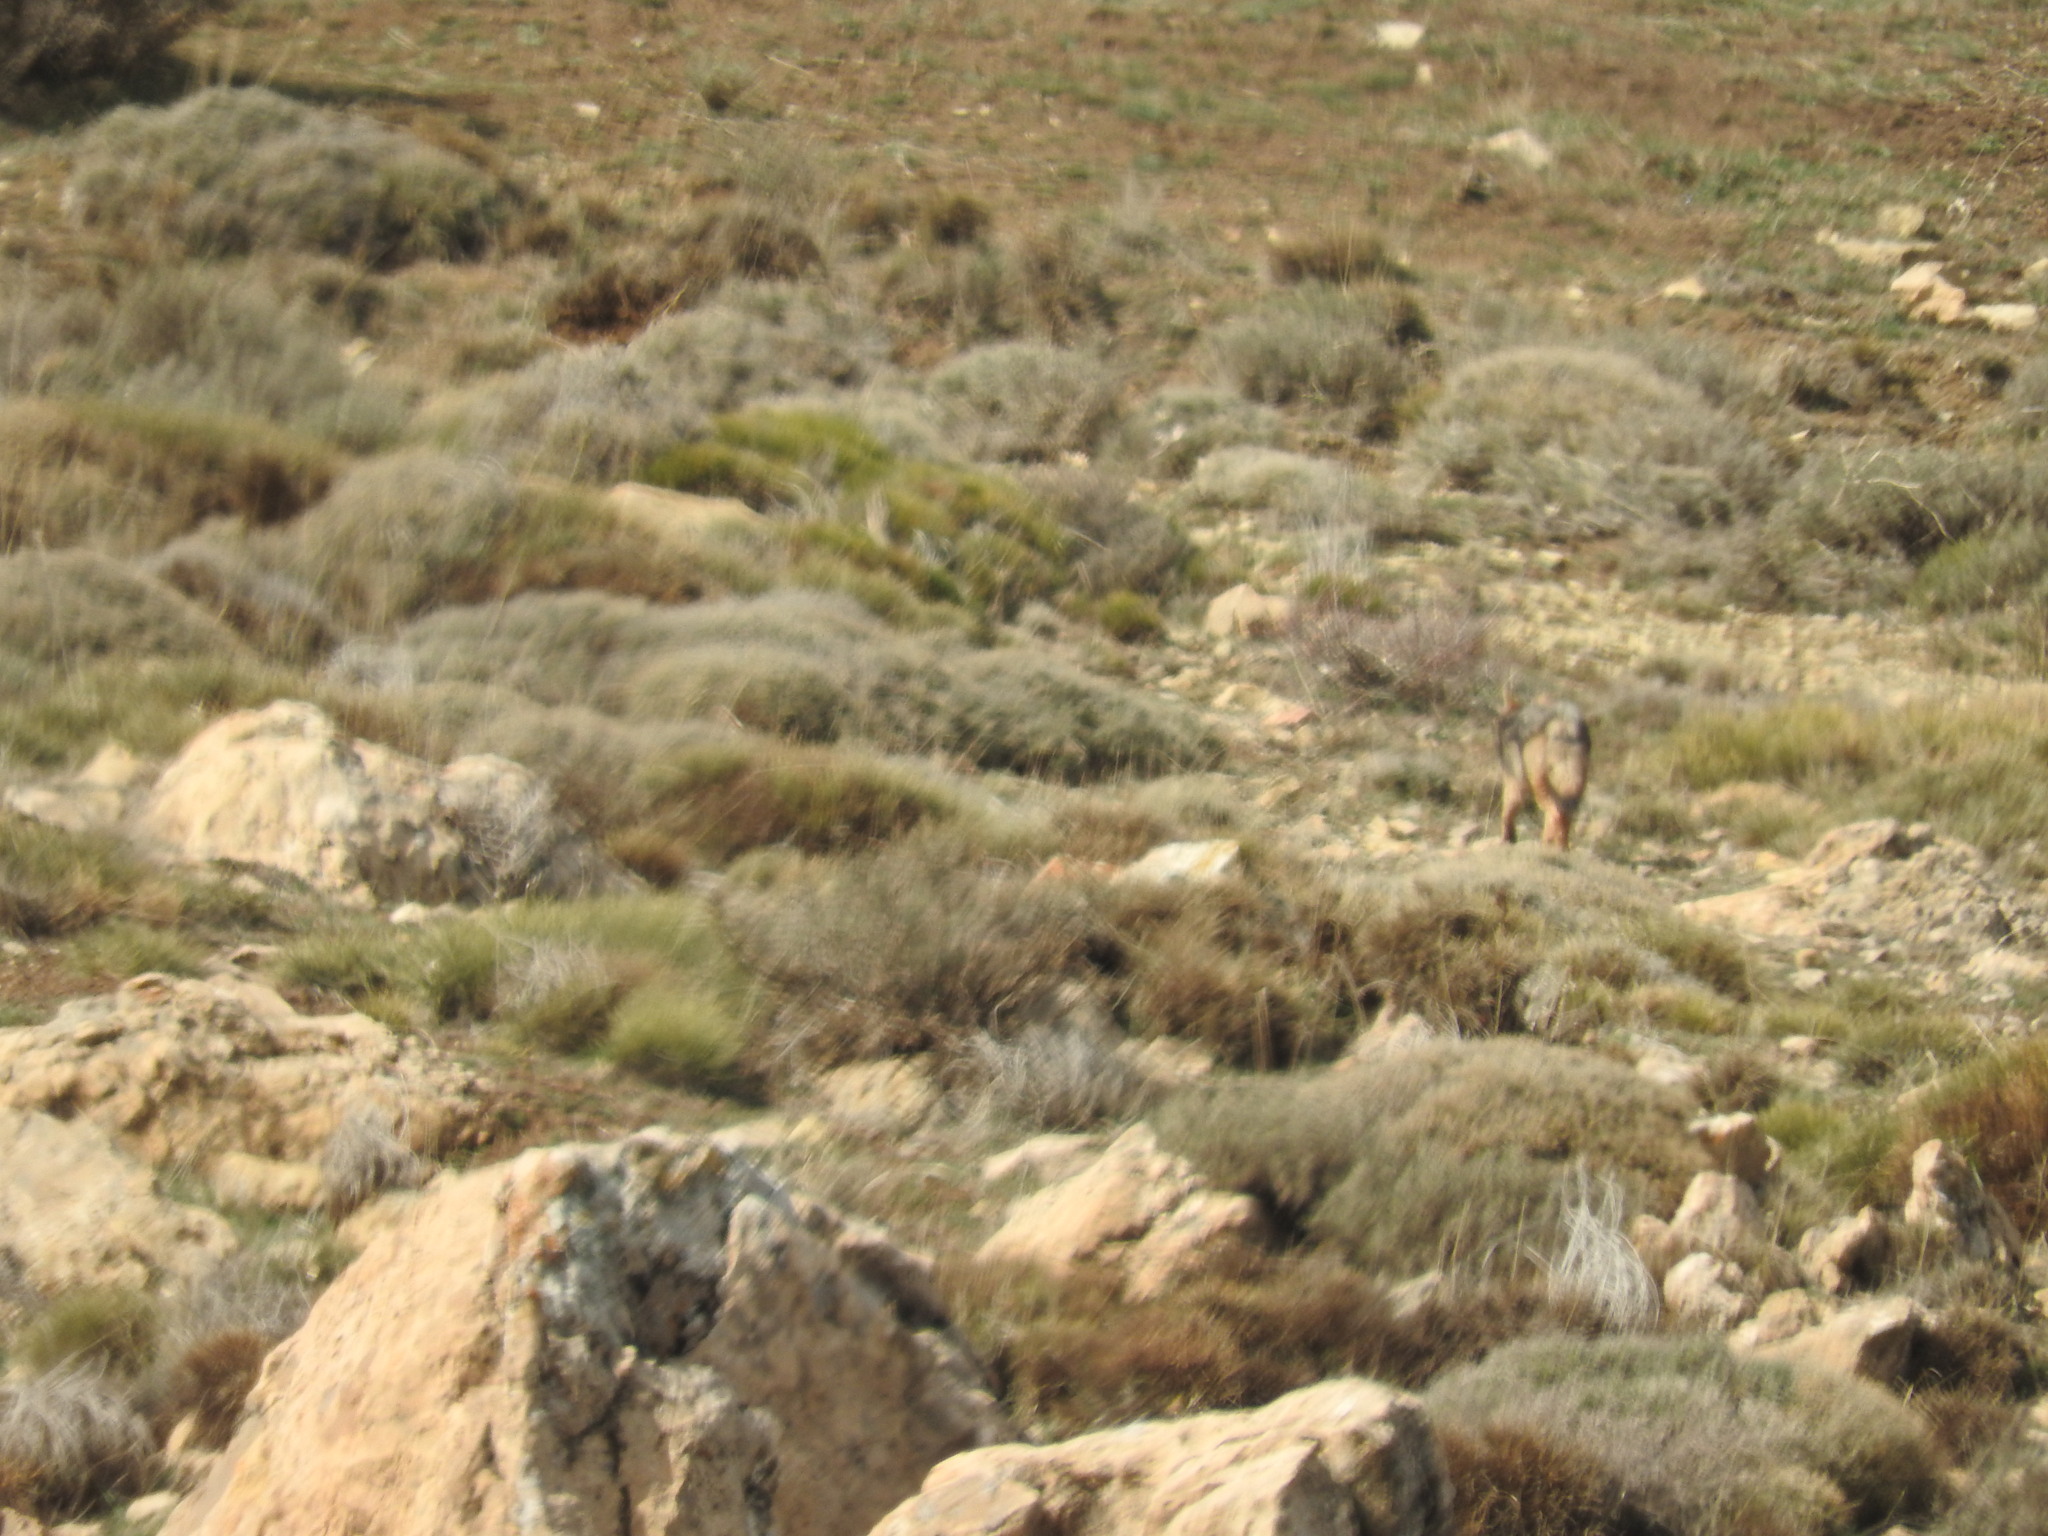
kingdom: Animalia
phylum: Chordata
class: Mammalia
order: Carnivora
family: Canidae
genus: Canis
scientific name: Canis lupaster
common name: African golden wolf
